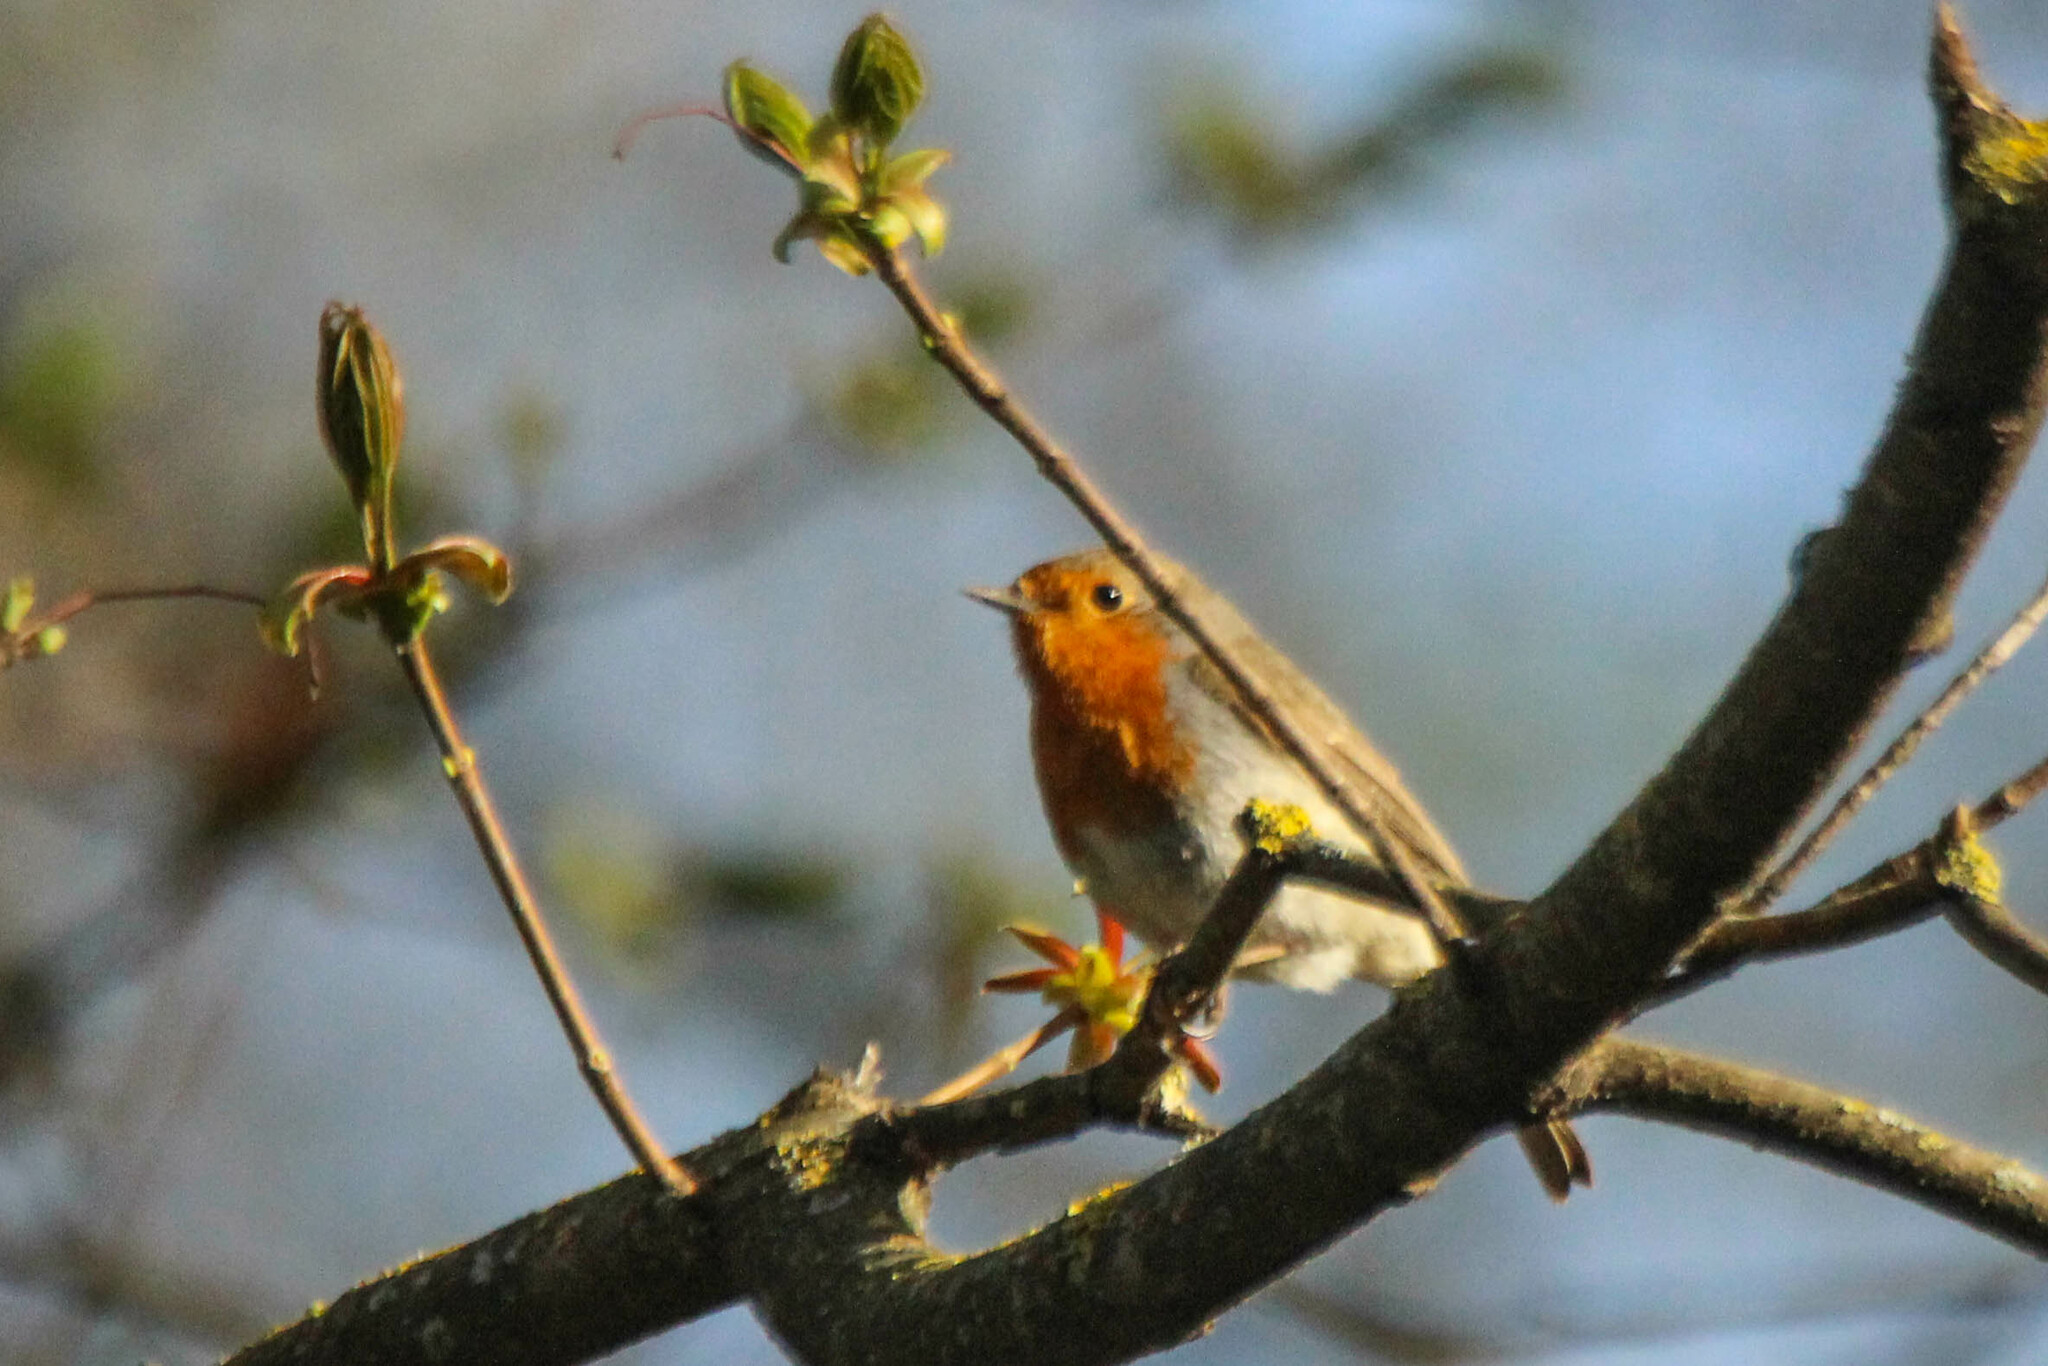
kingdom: Animalia
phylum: Chordata
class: Aves
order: Passeriformes
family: Muscicapidae
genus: Erithacus
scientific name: Erithacus rubecula
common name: European robin
